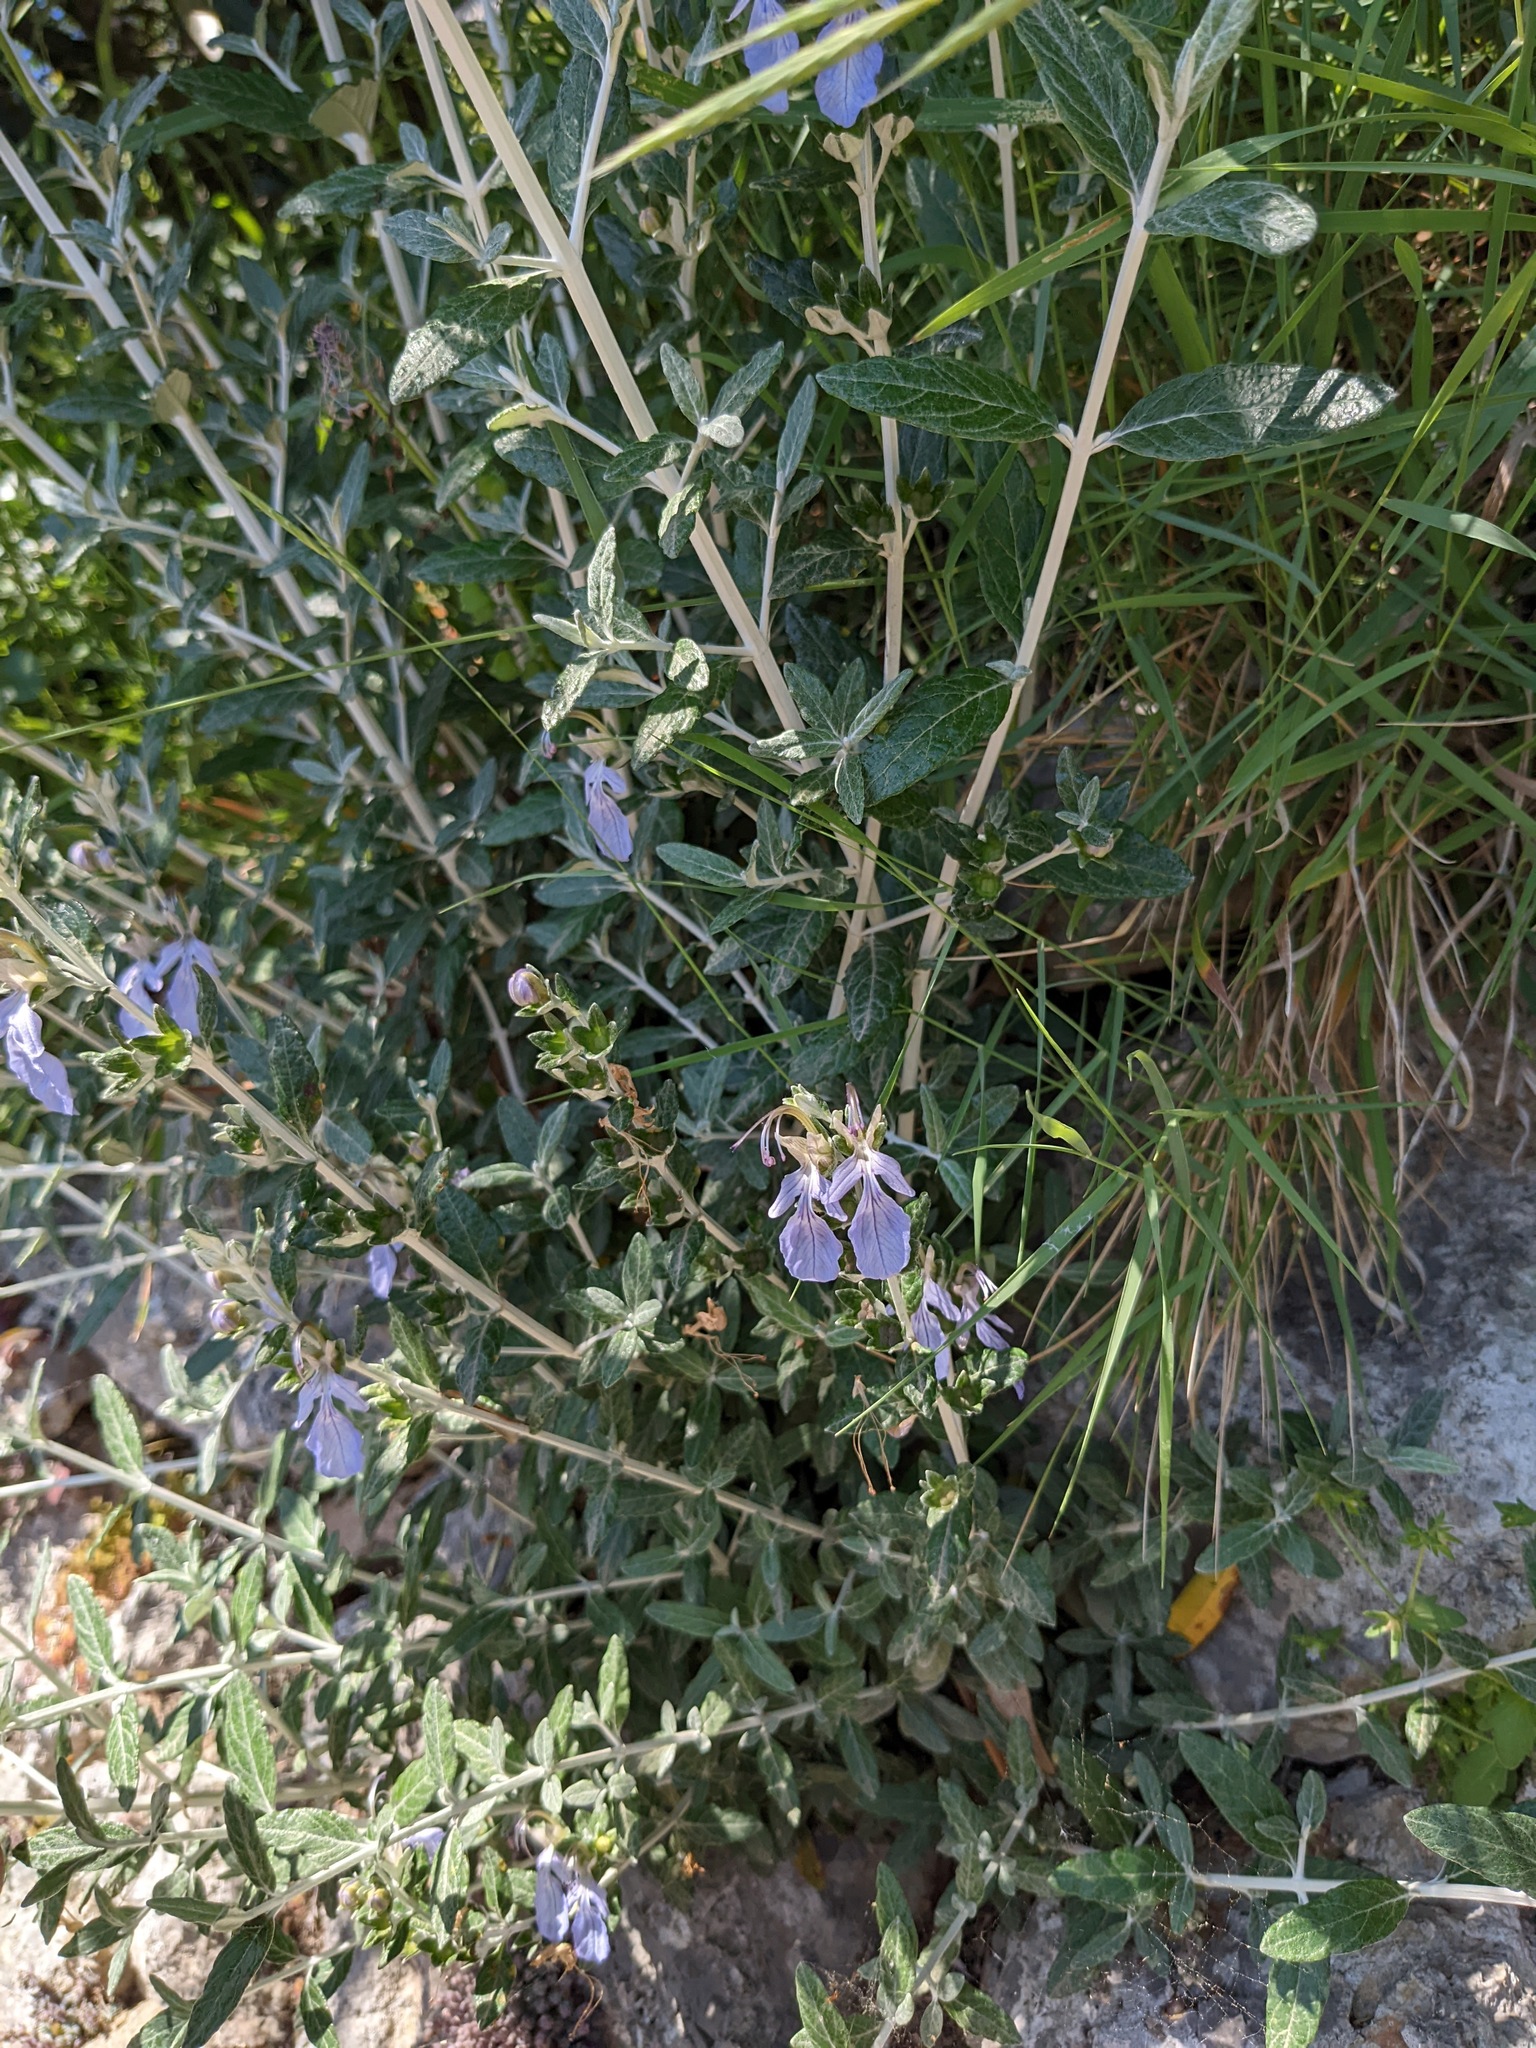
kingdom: Plantae
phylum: Tracheophyta
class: Magnoliopsida
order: Lamiales
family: Lamiaceae
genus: Teucrium
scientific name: Teucrium fruticans
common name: Shrubby germander
